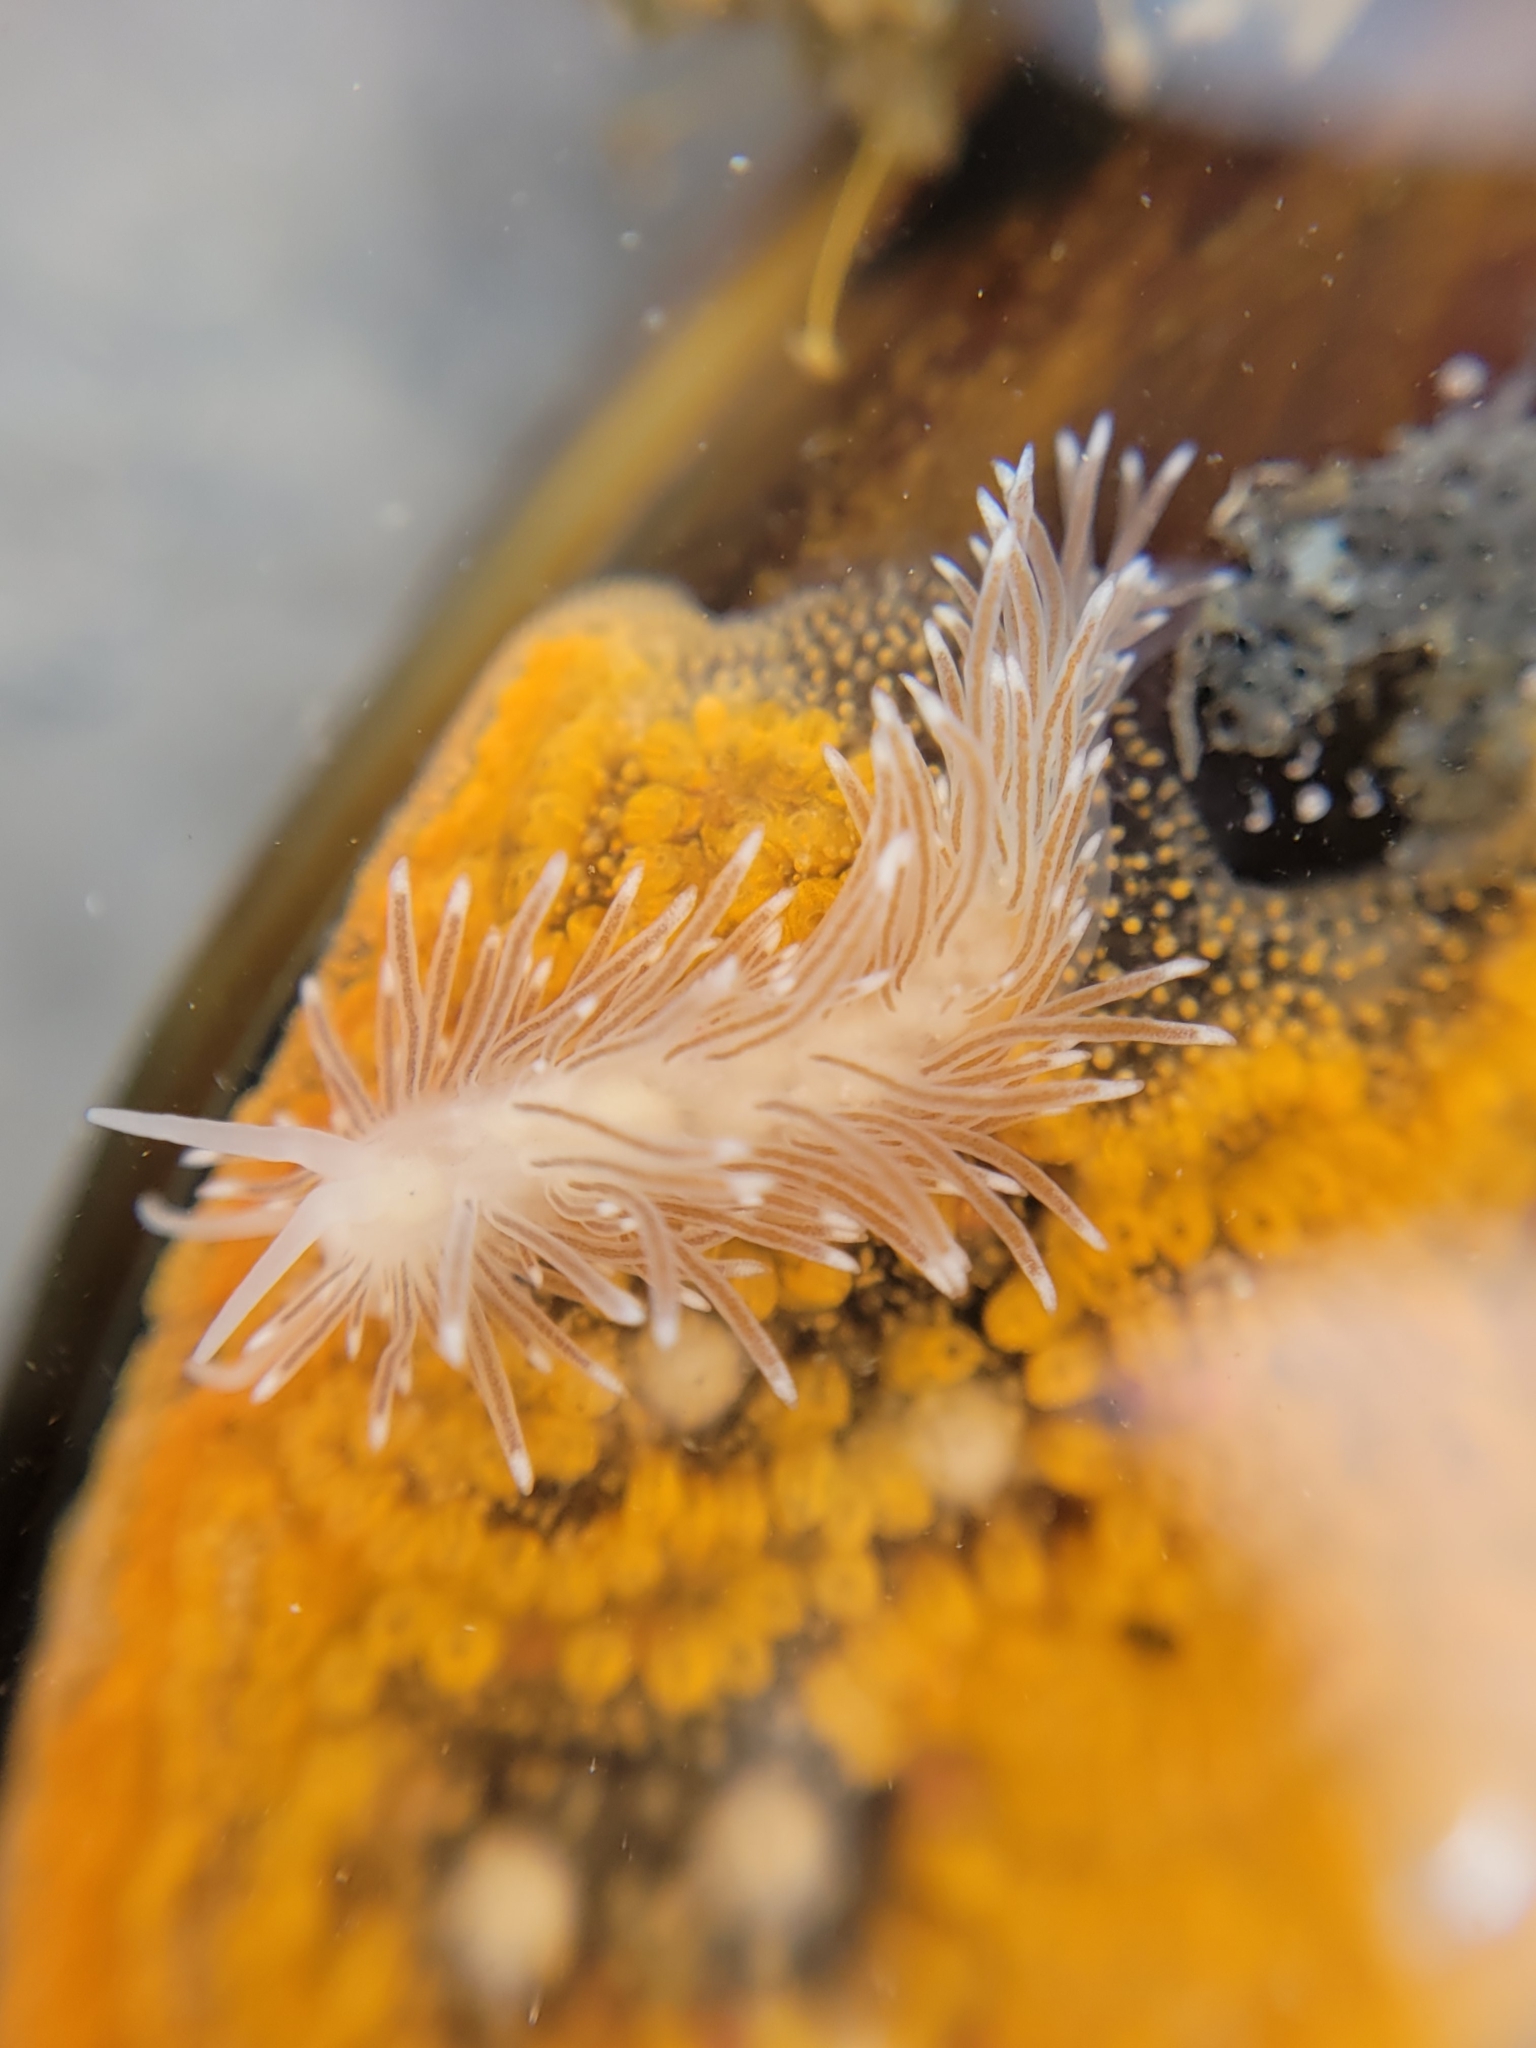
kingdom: Animalia
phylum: Mollusca
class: Gastropoda
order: Nudibranchia
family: Cuthonidae
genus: Cuthona
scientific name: Cuthona divae
